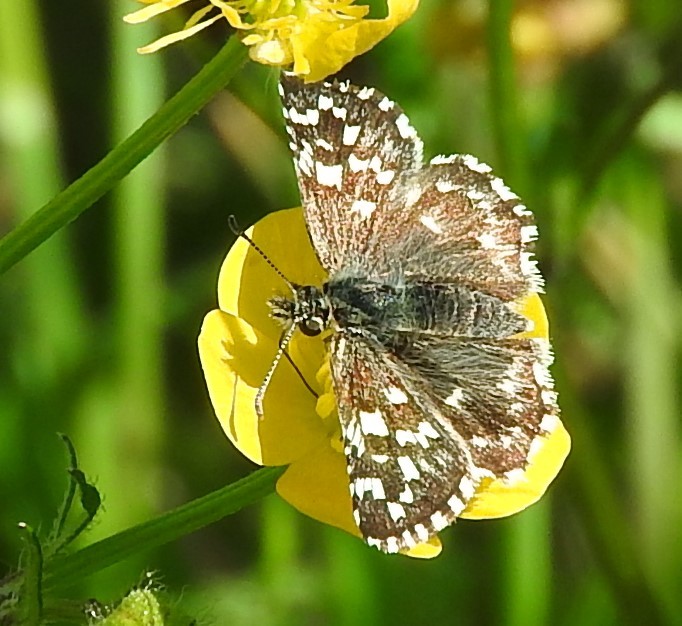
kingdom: Animalia
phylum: Arthropoda
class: Insecta
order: Lepidoptera
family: Hesperiidae
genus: Pyrgus
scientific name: Pyrgus malvoides
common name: Southern grizzled skipper
